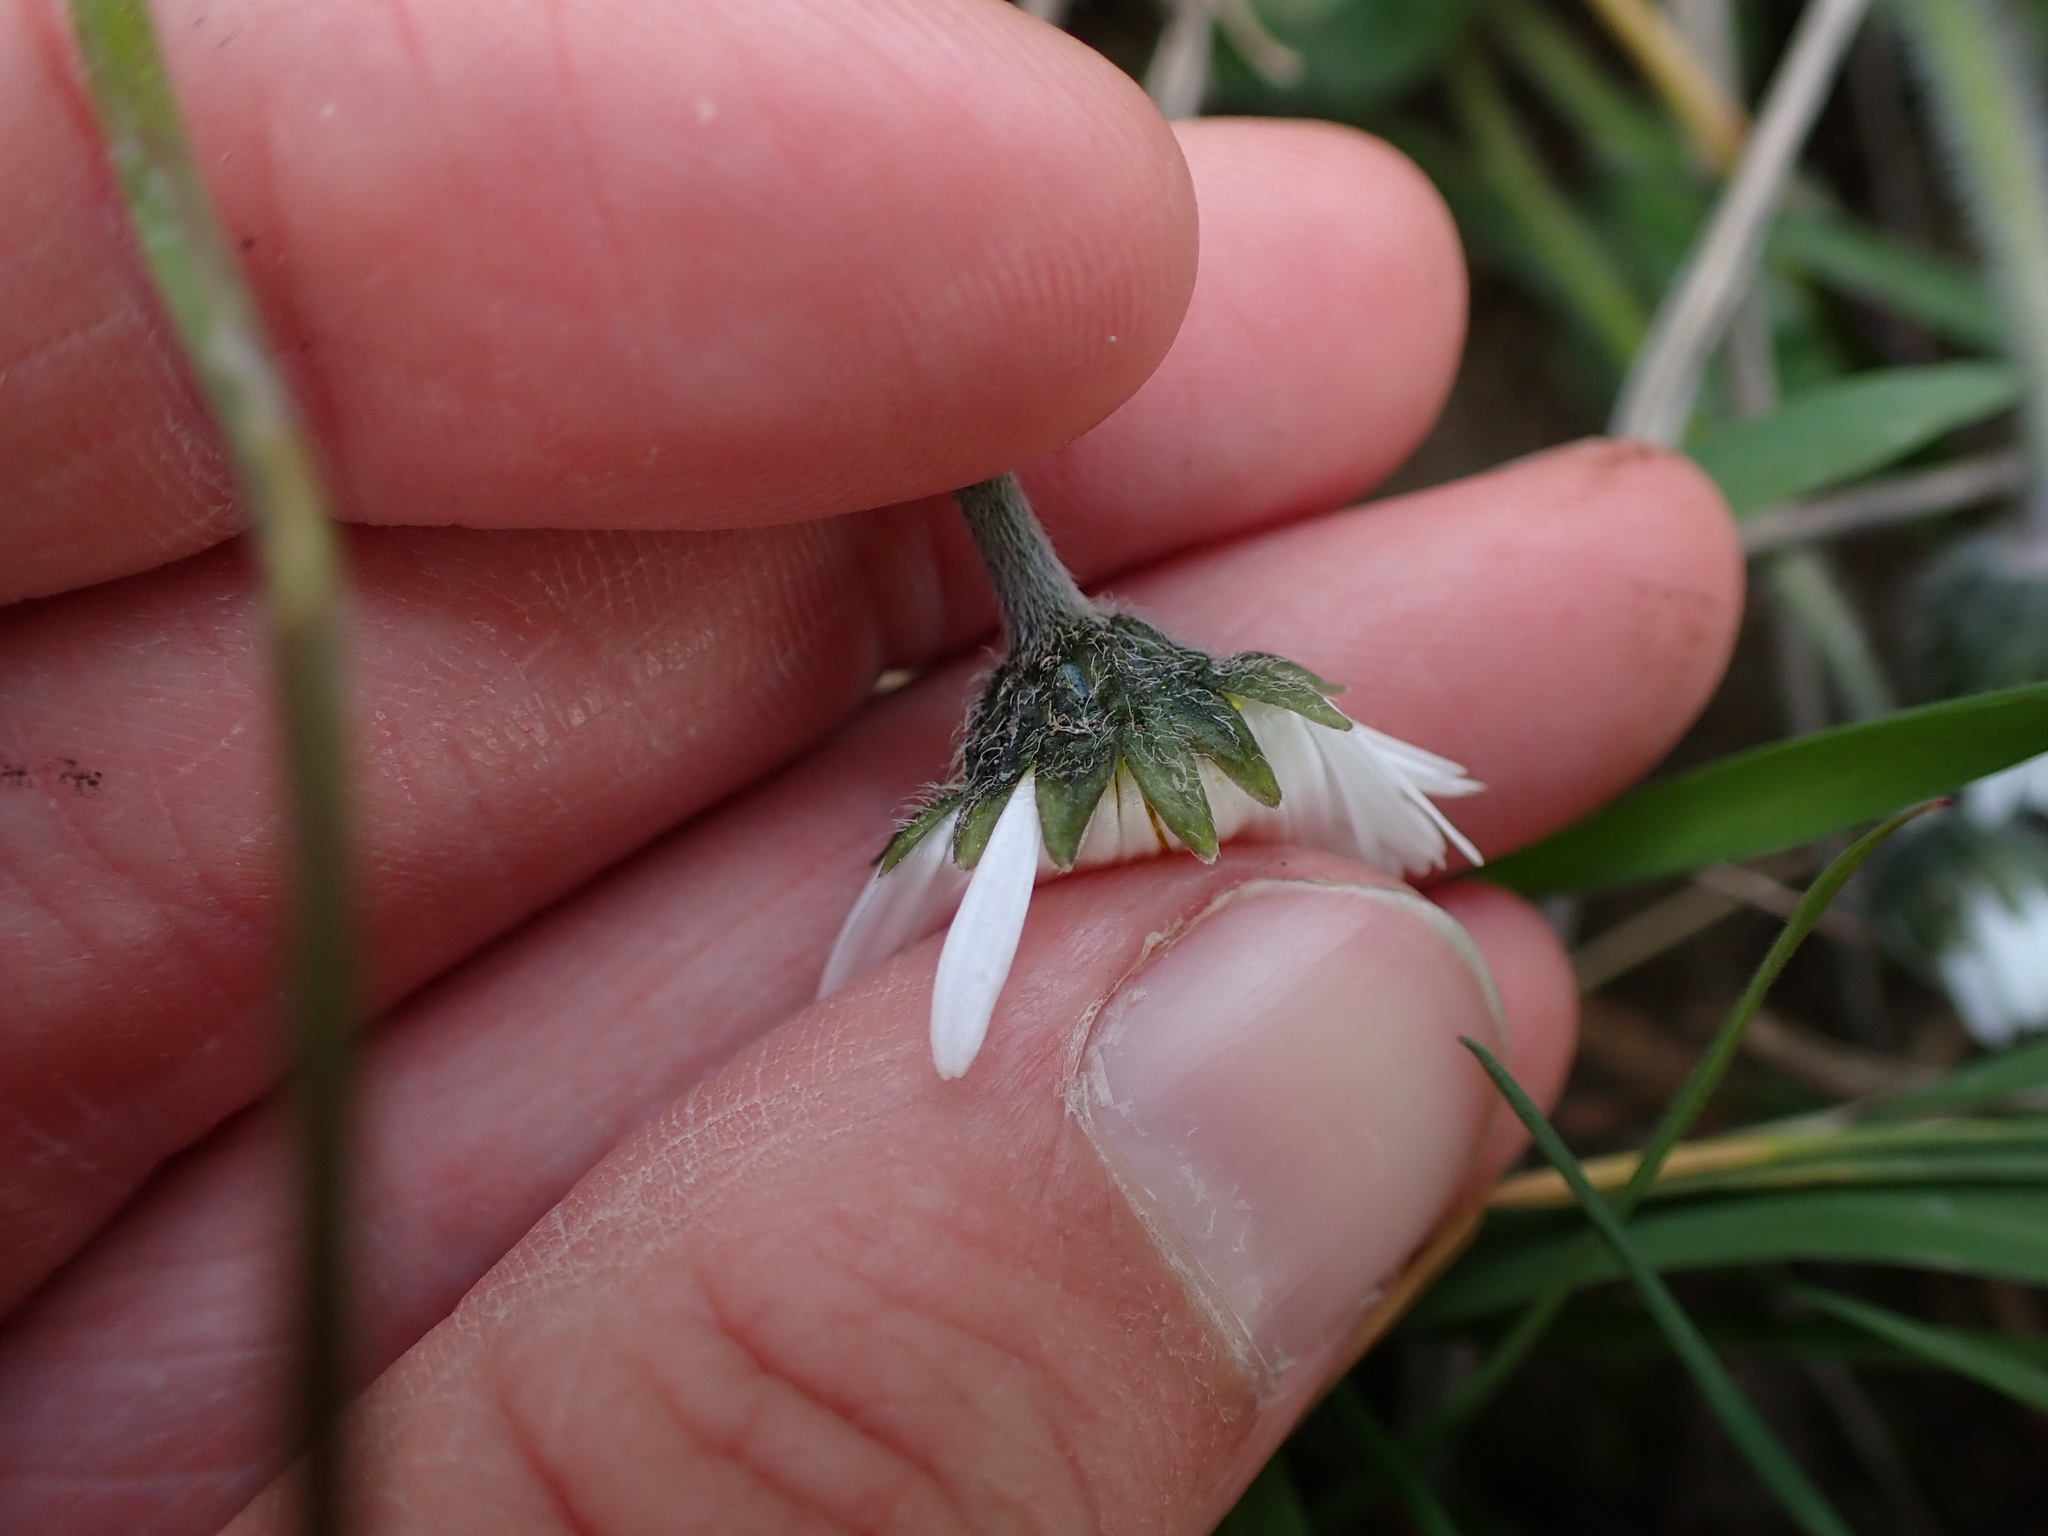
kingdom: Plantae
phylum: Tracheophyta
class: Magnoliopsida
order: Asterales
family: Asteraceae
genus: Bellis
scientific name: Bellis perennis
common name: Lawndaisy
